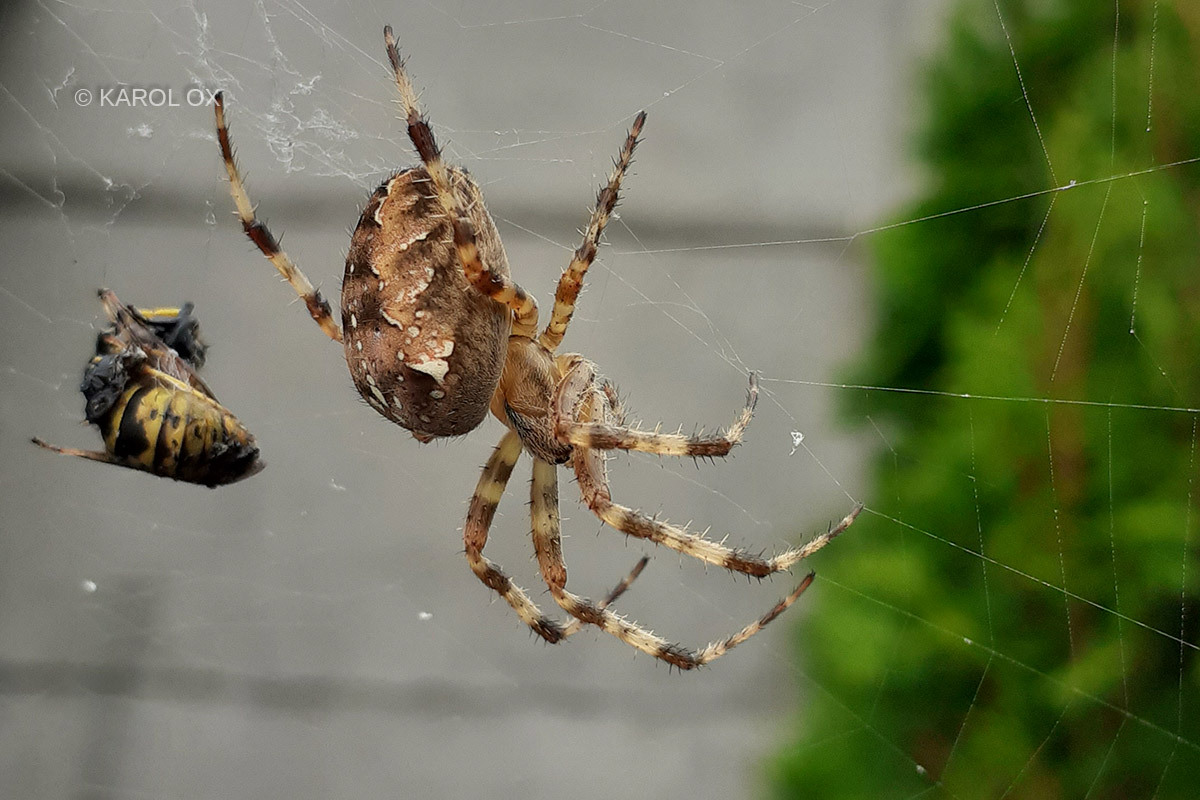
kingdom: Animalia
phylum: Arthropoda
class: Arachnida
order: Araneae
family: Araneidae
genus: Araneus
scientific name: Araneus diadematus
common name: Cross orbweaver
